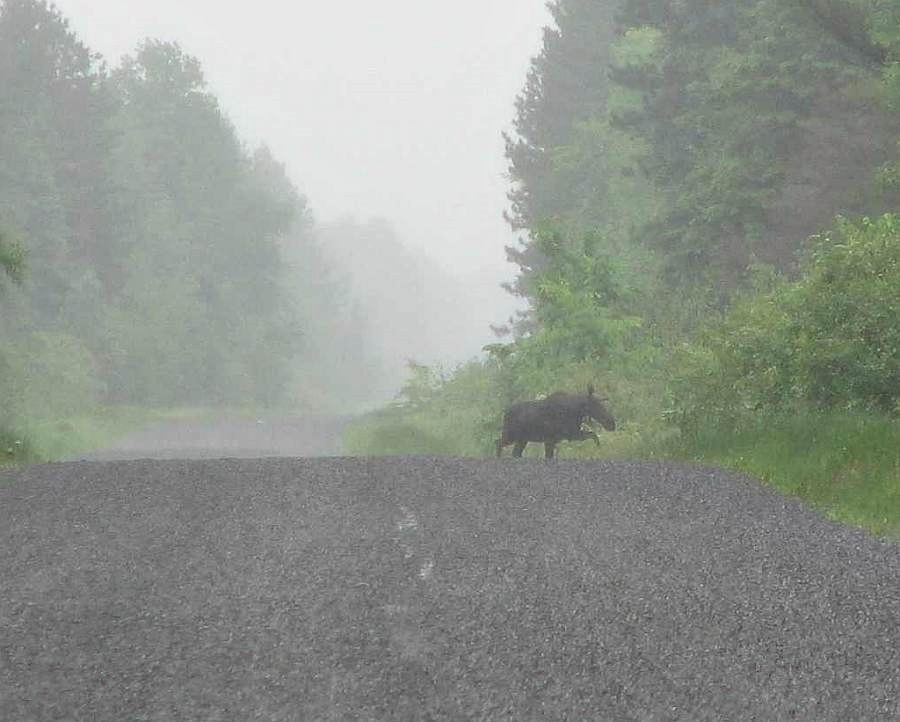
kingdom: Animalia
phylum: Chordata
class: Mammalia
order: Artiodactyla
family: Cervidae
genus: Alces
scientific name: Alces alces
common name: Moose
